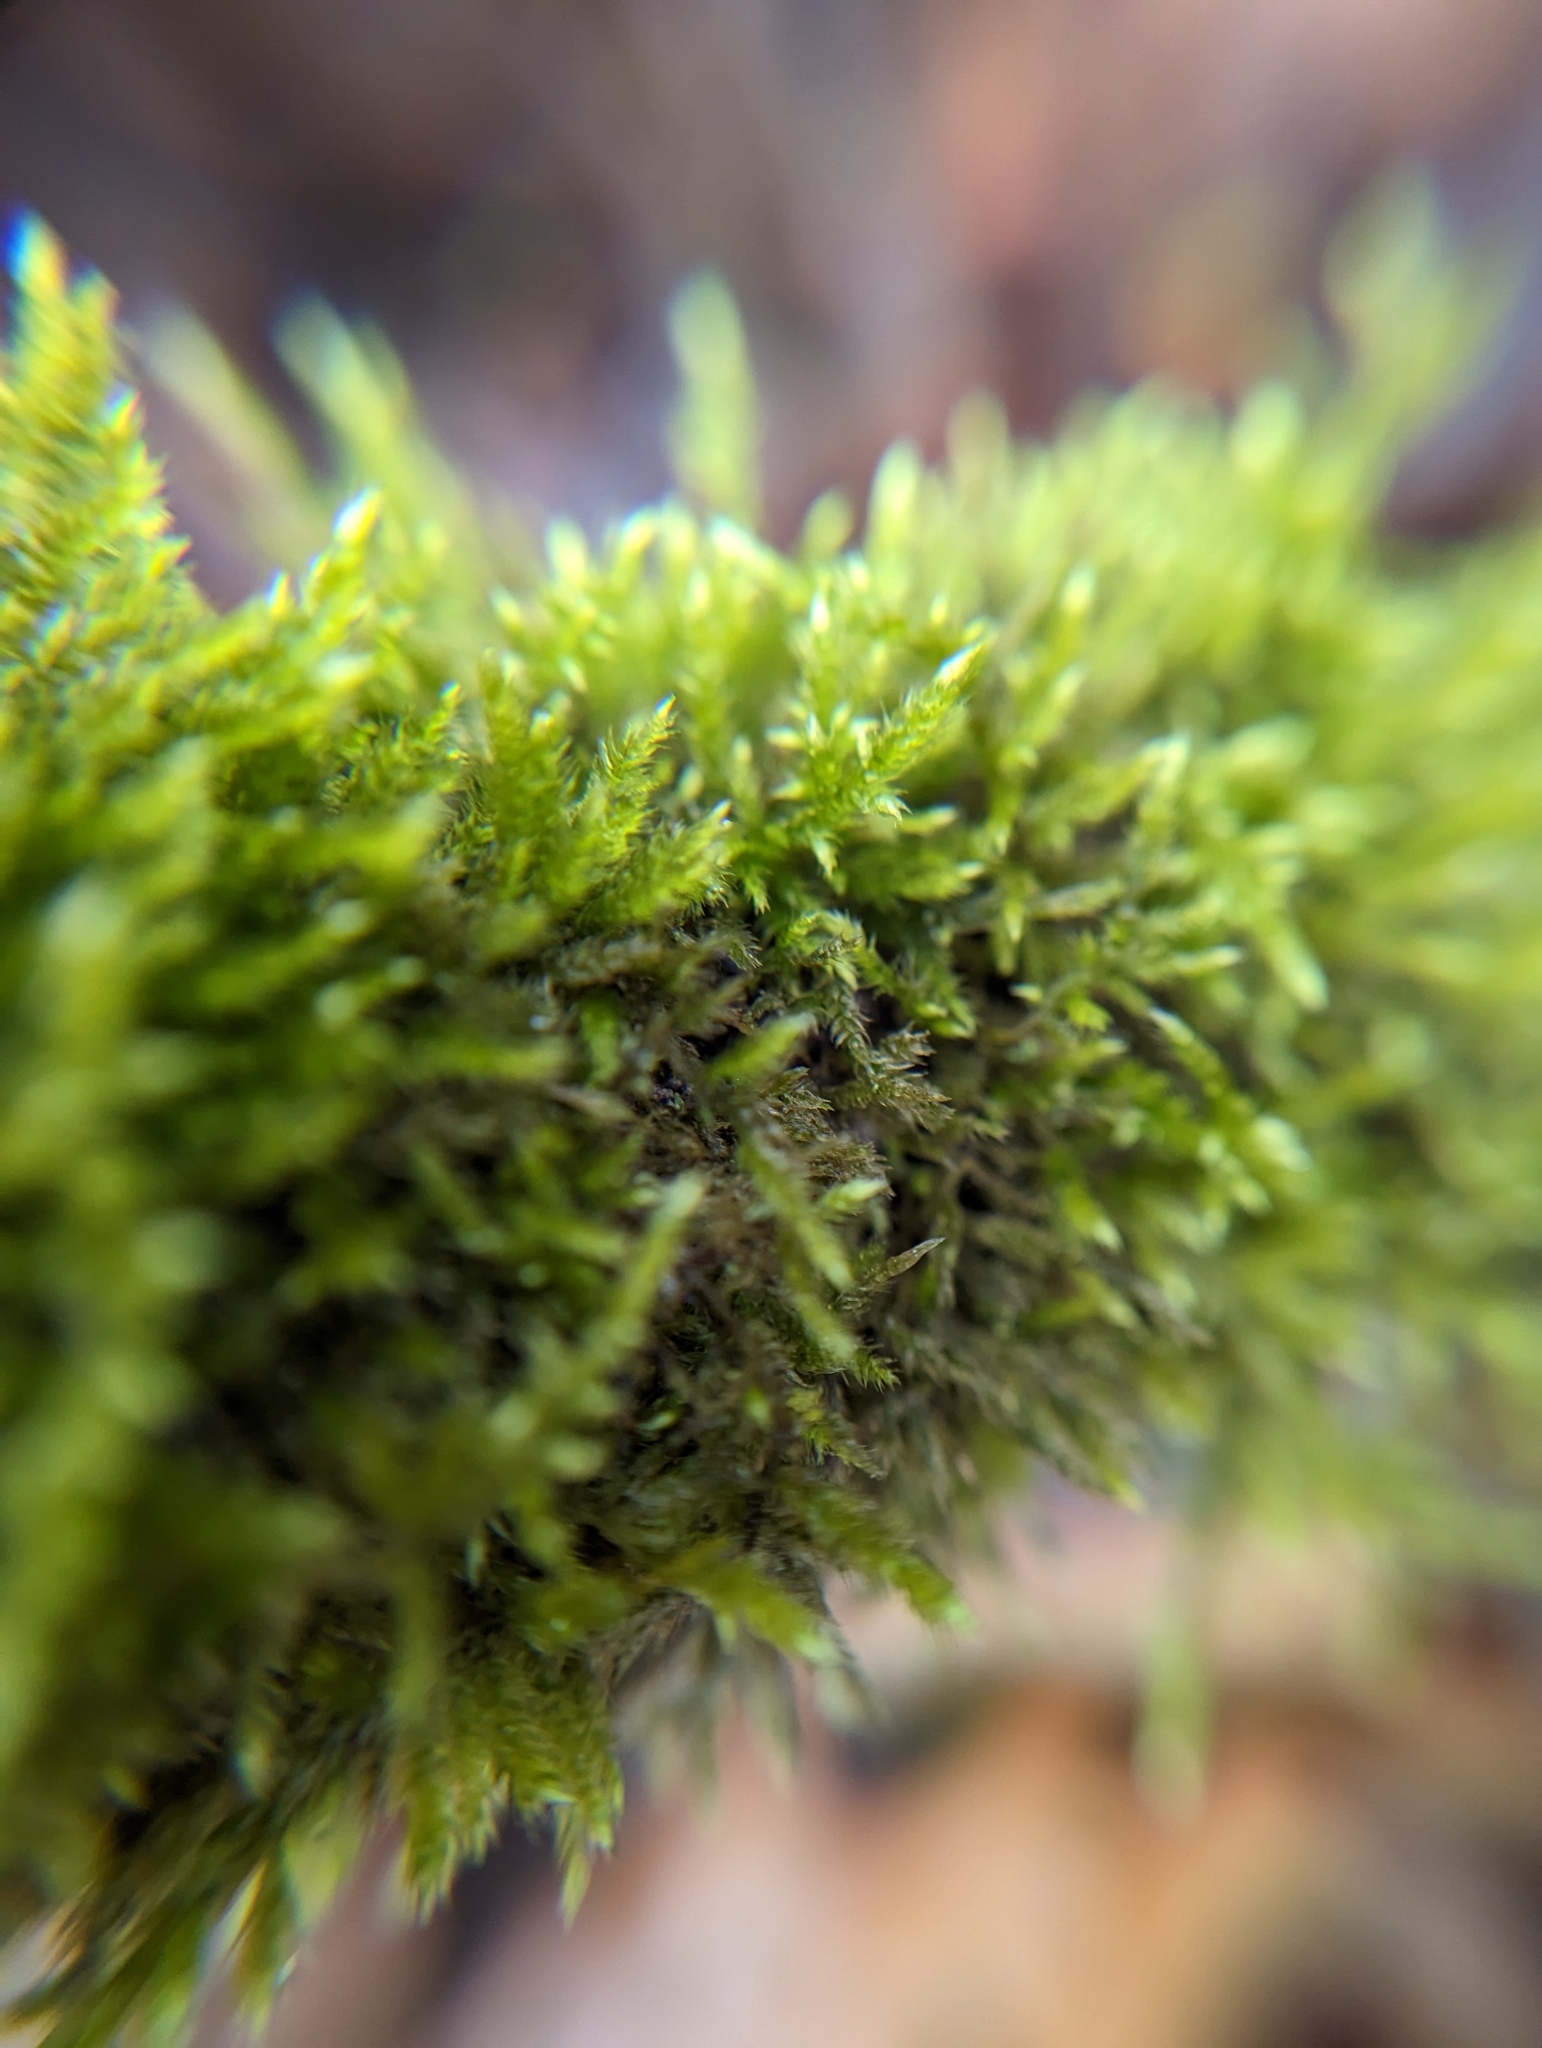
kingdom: Plantae
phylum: Bryophyta
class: Bryopsida
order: Hypnales
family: Callicladiaceae
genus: Callicladium
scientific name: Callicladium haldanianum
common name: Beautiful branch moss
